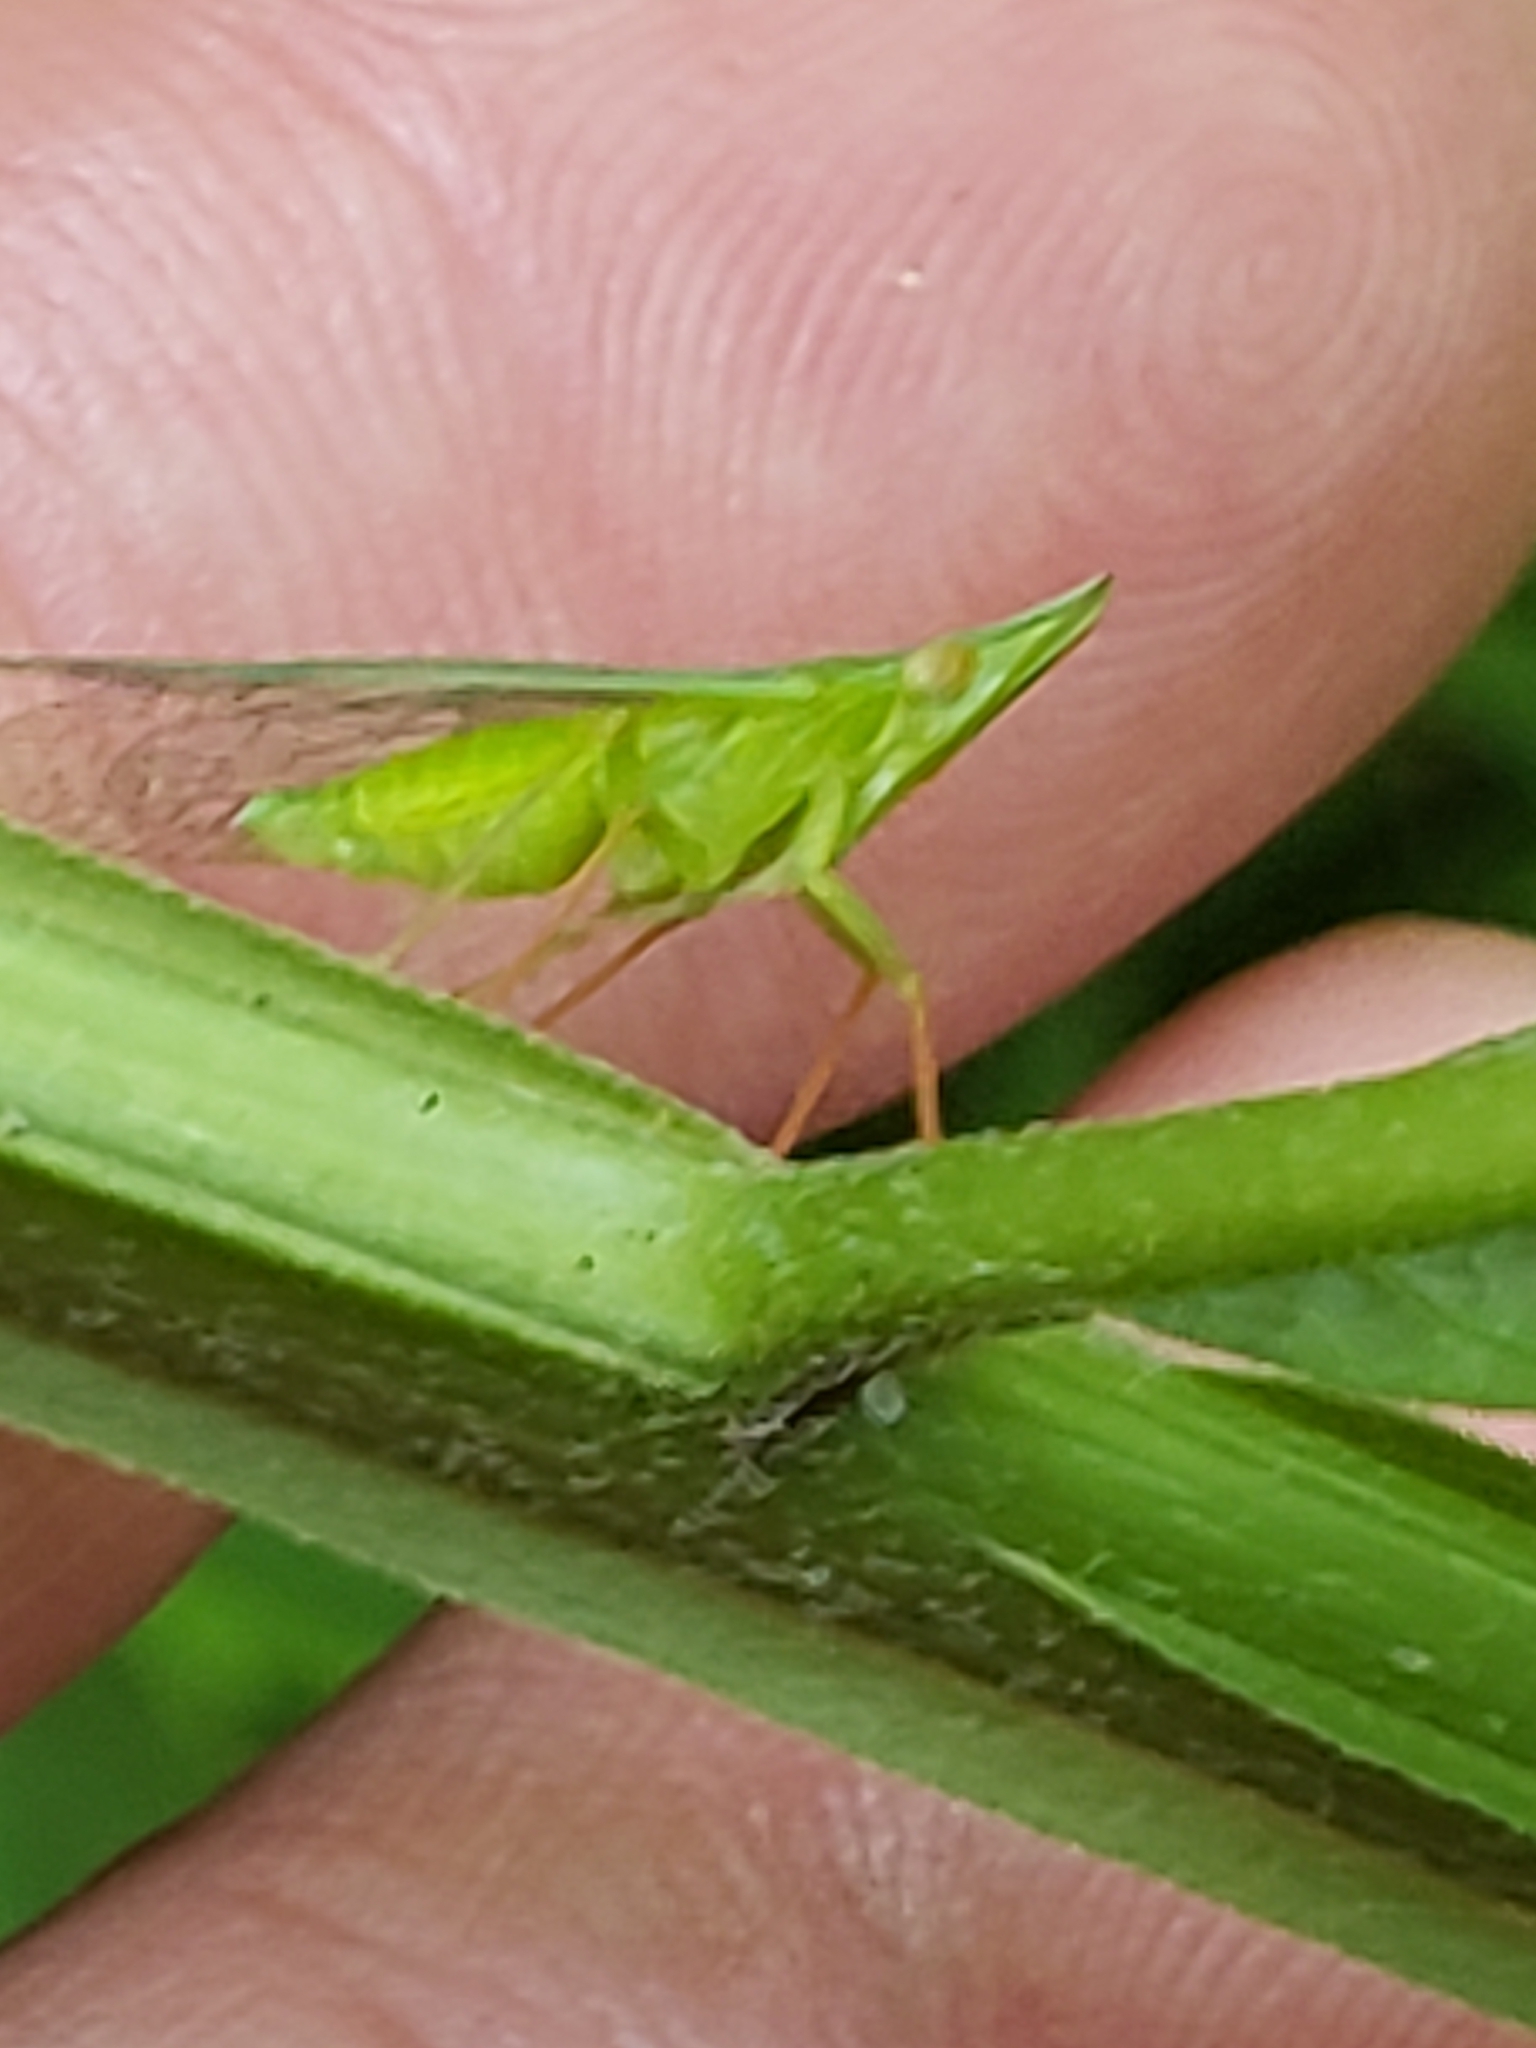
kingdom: Animalia
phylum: Arthropoda
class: Insecta
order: Hemiptera
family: Dictyopharidae
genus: Rhynchomitra
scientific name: Rhynchomitra microrhina
